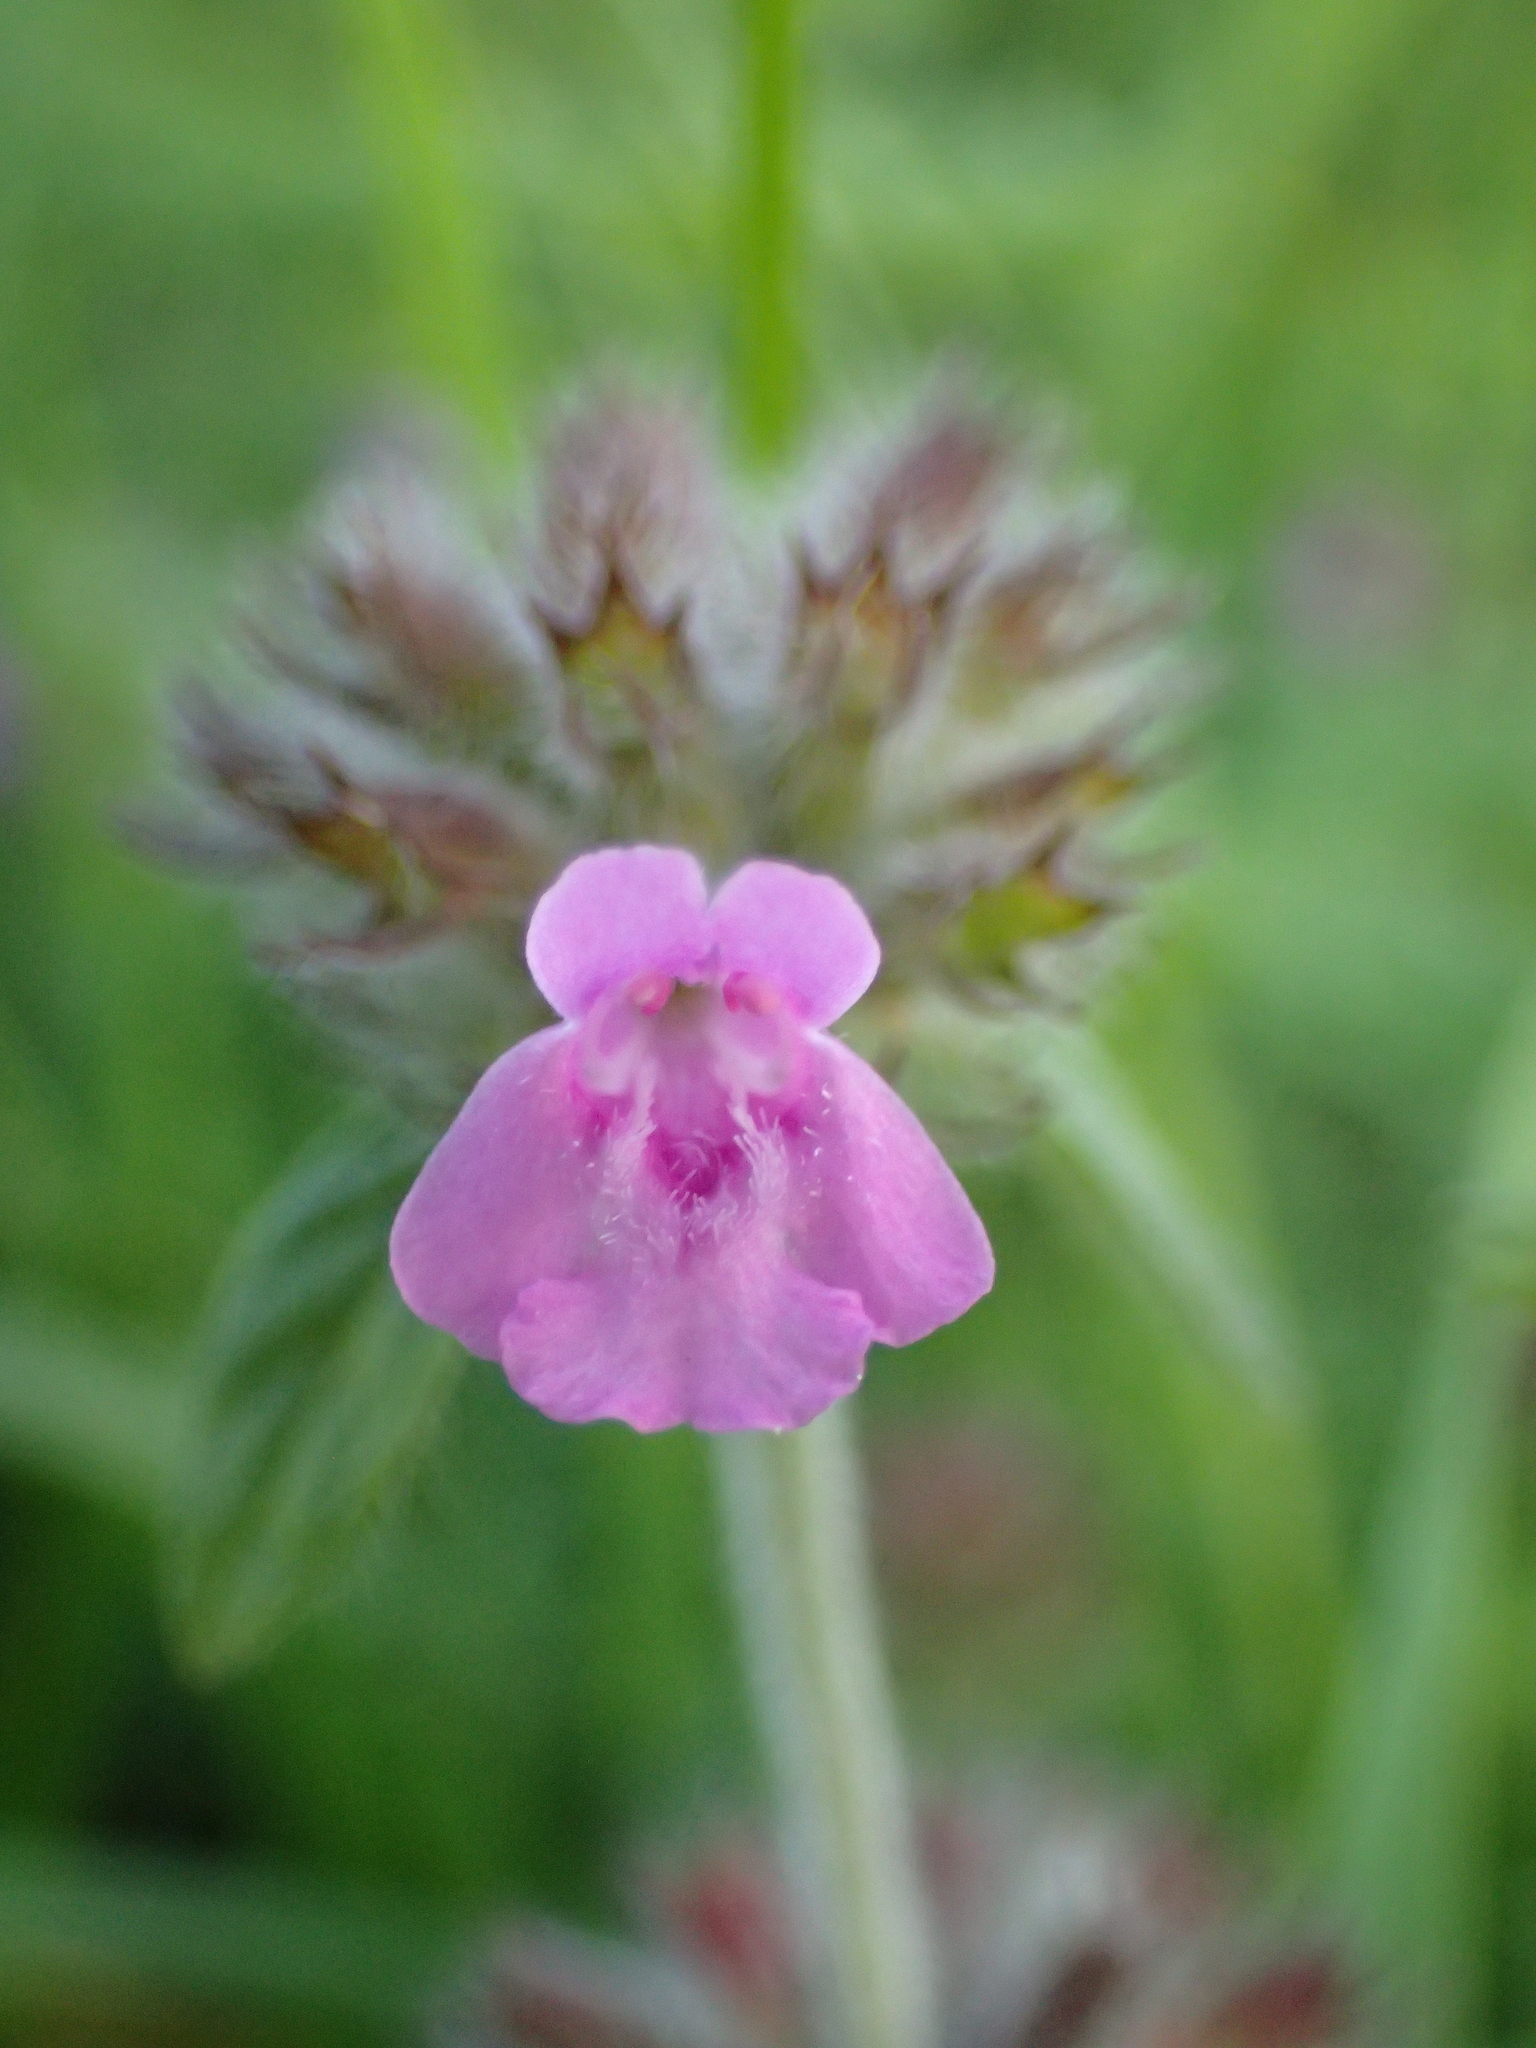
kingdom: Plantae
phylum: Tracheophyta
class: Magnoliopsida
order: Lamiales
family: Lamiaceae
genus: Clinopodium
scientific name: Clinopodium vulgare
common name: Wild basil
